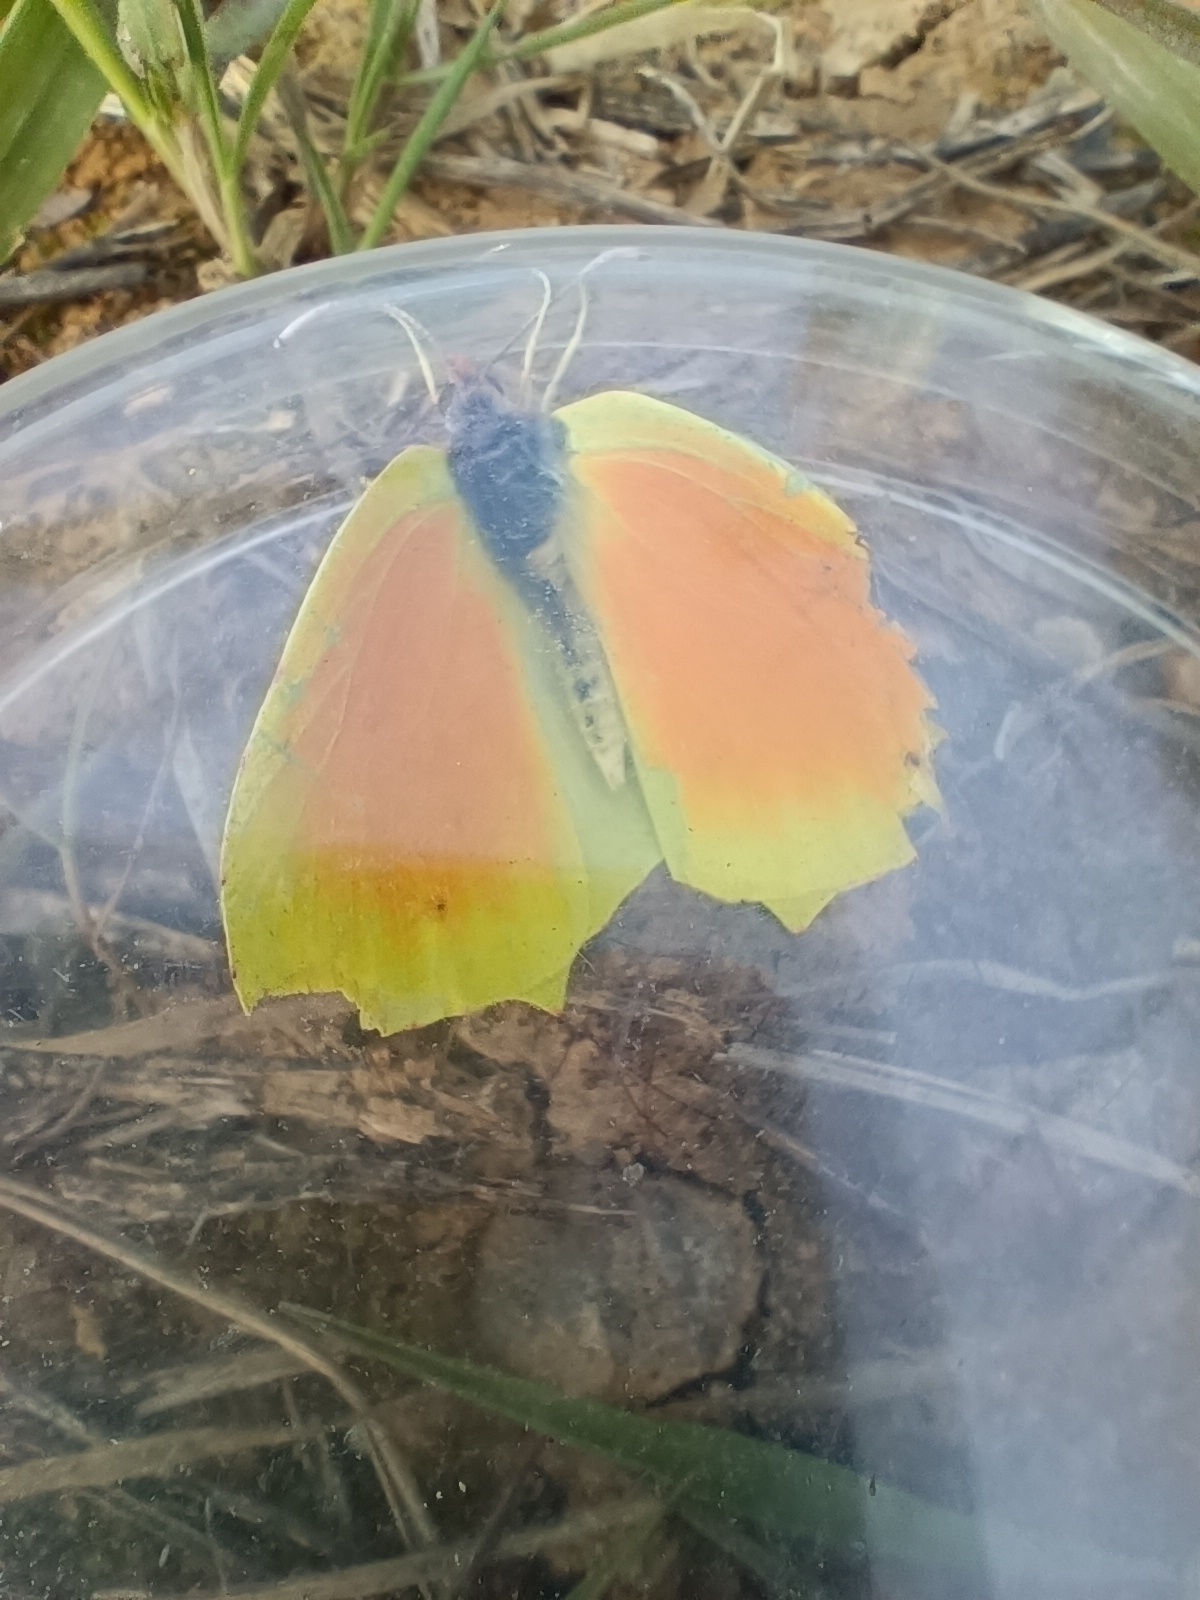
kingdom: Animalia
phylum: Arthropoda
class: Insecta
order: Lepidoptera
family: Pieridae
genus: Gonepteryx
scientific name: Gonepteryx cleopatra
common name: Cleopatra
